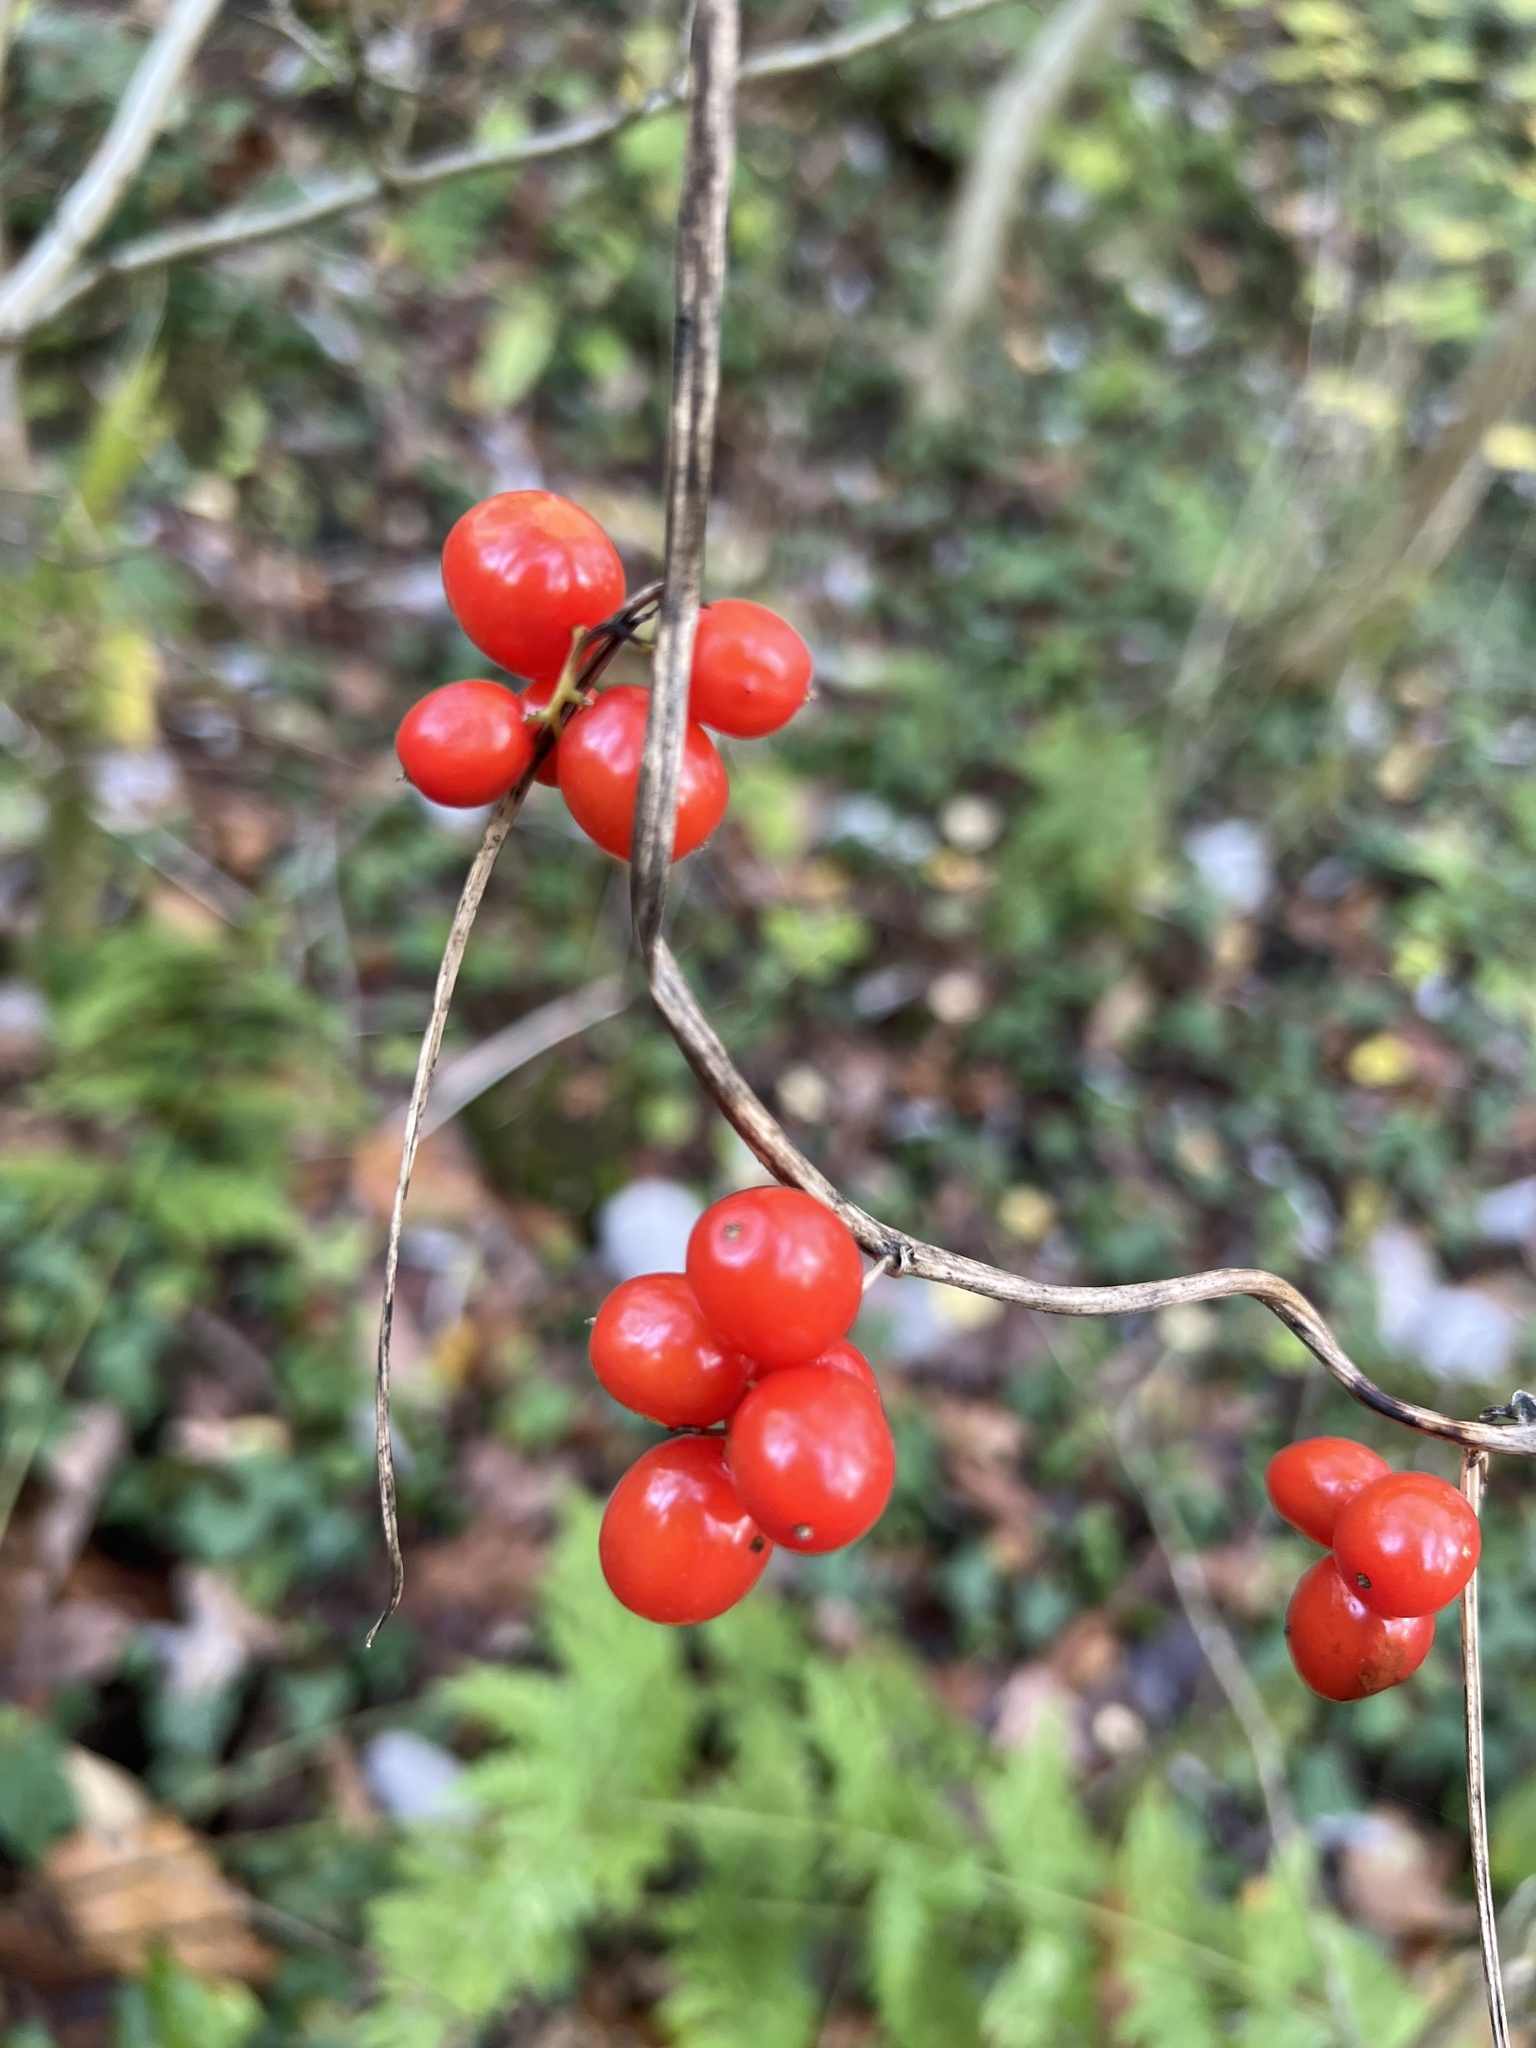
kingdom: Plantae
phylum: Tracheophyta
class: Liliopsida
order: Dioscoreales
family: Dioscoreaceae
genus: Dioscorea
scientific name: Dioscorea communis
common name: Black-bindweed
